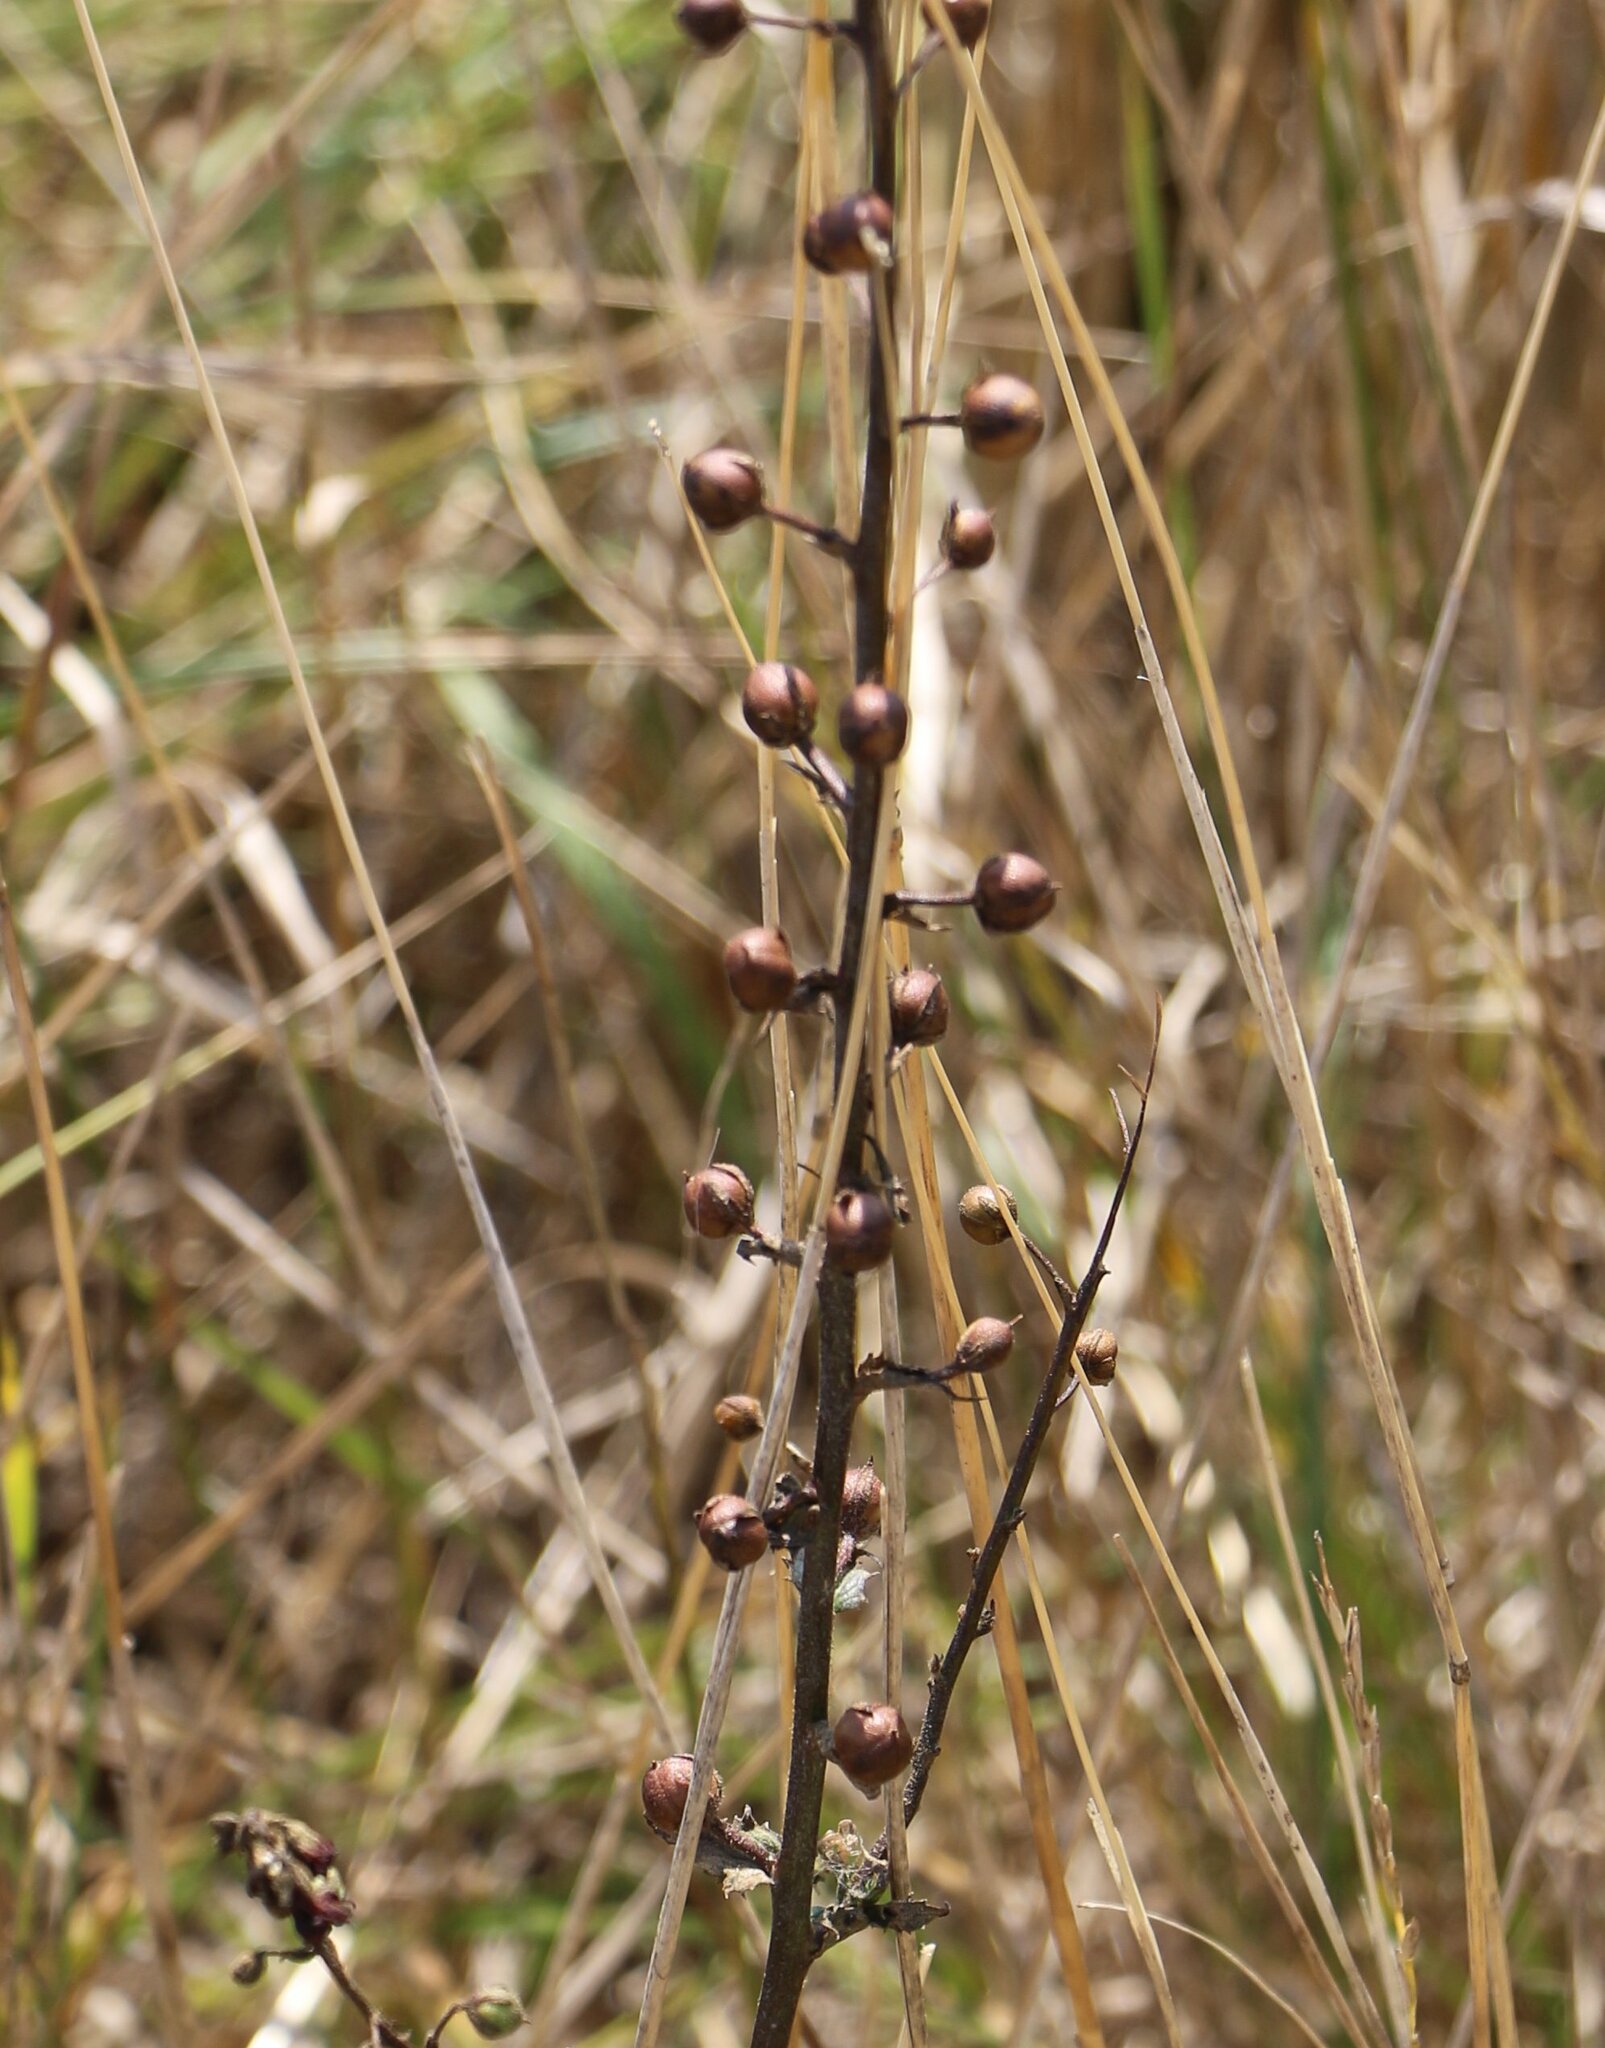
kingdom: Plantae
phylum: Tracheophyta
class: Magnoliopsida
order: Lamiales
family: Scrophulariaceae
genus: Verbascum
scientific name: Verbascum blattaria
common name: Moth mullein
